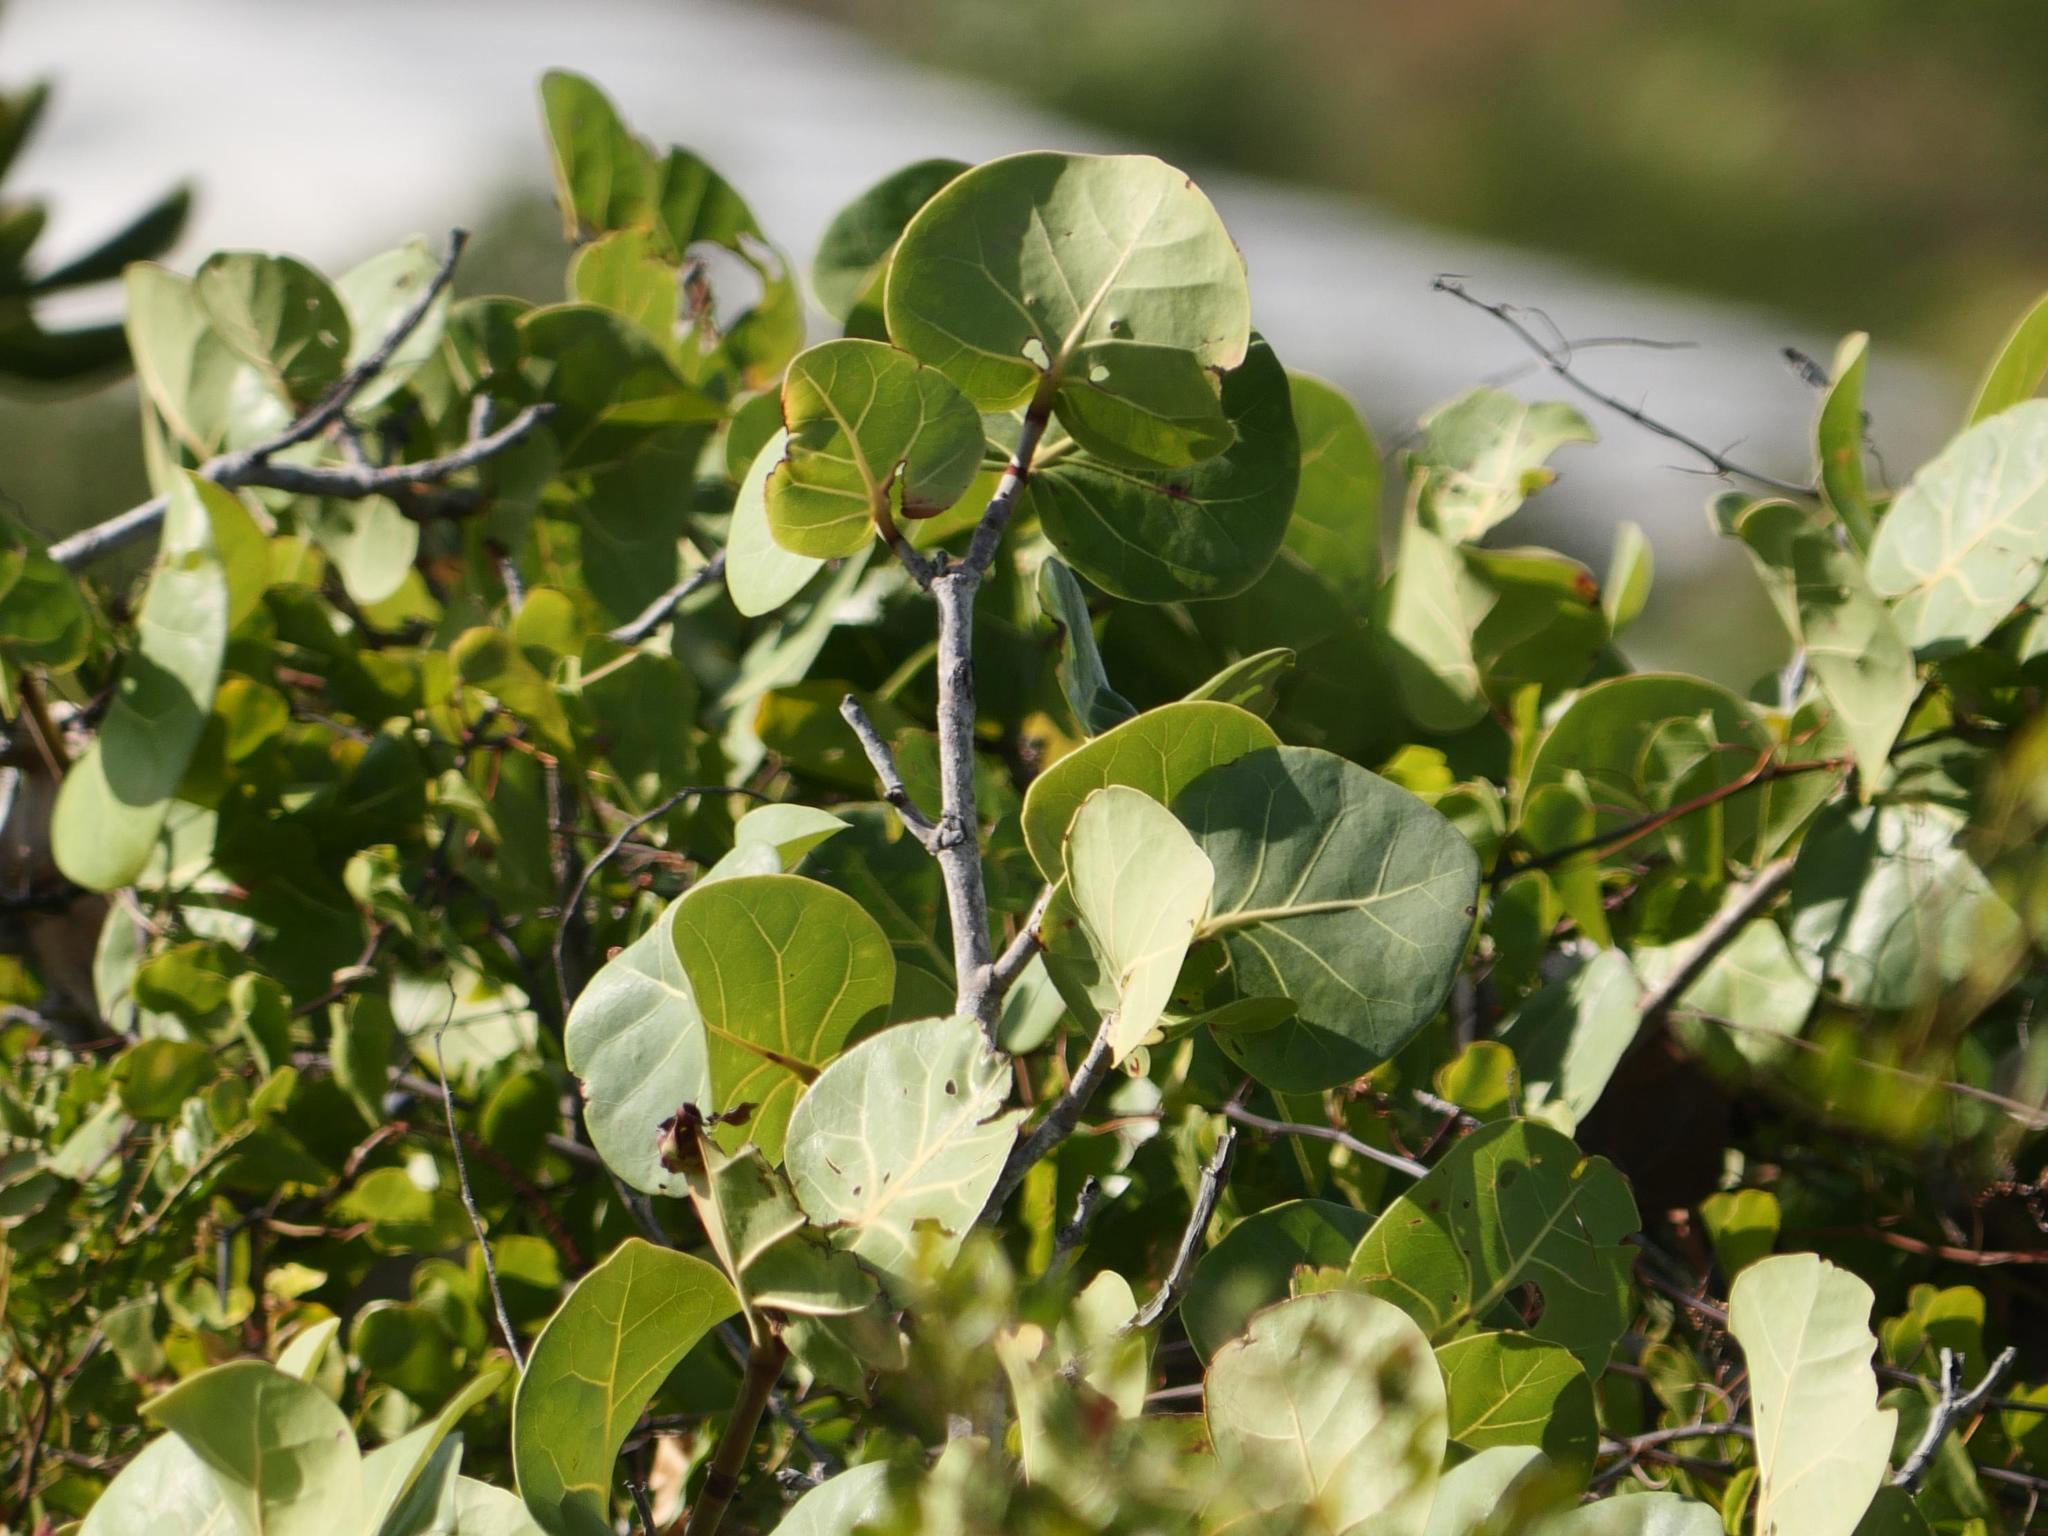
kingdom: Plantae
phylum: Tracheophyta
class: Magnoliopsida
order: Caryophyllales
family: Polygonaceae
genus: Coccoloba
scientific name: Coccoloba uvifera
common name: Seagrape
